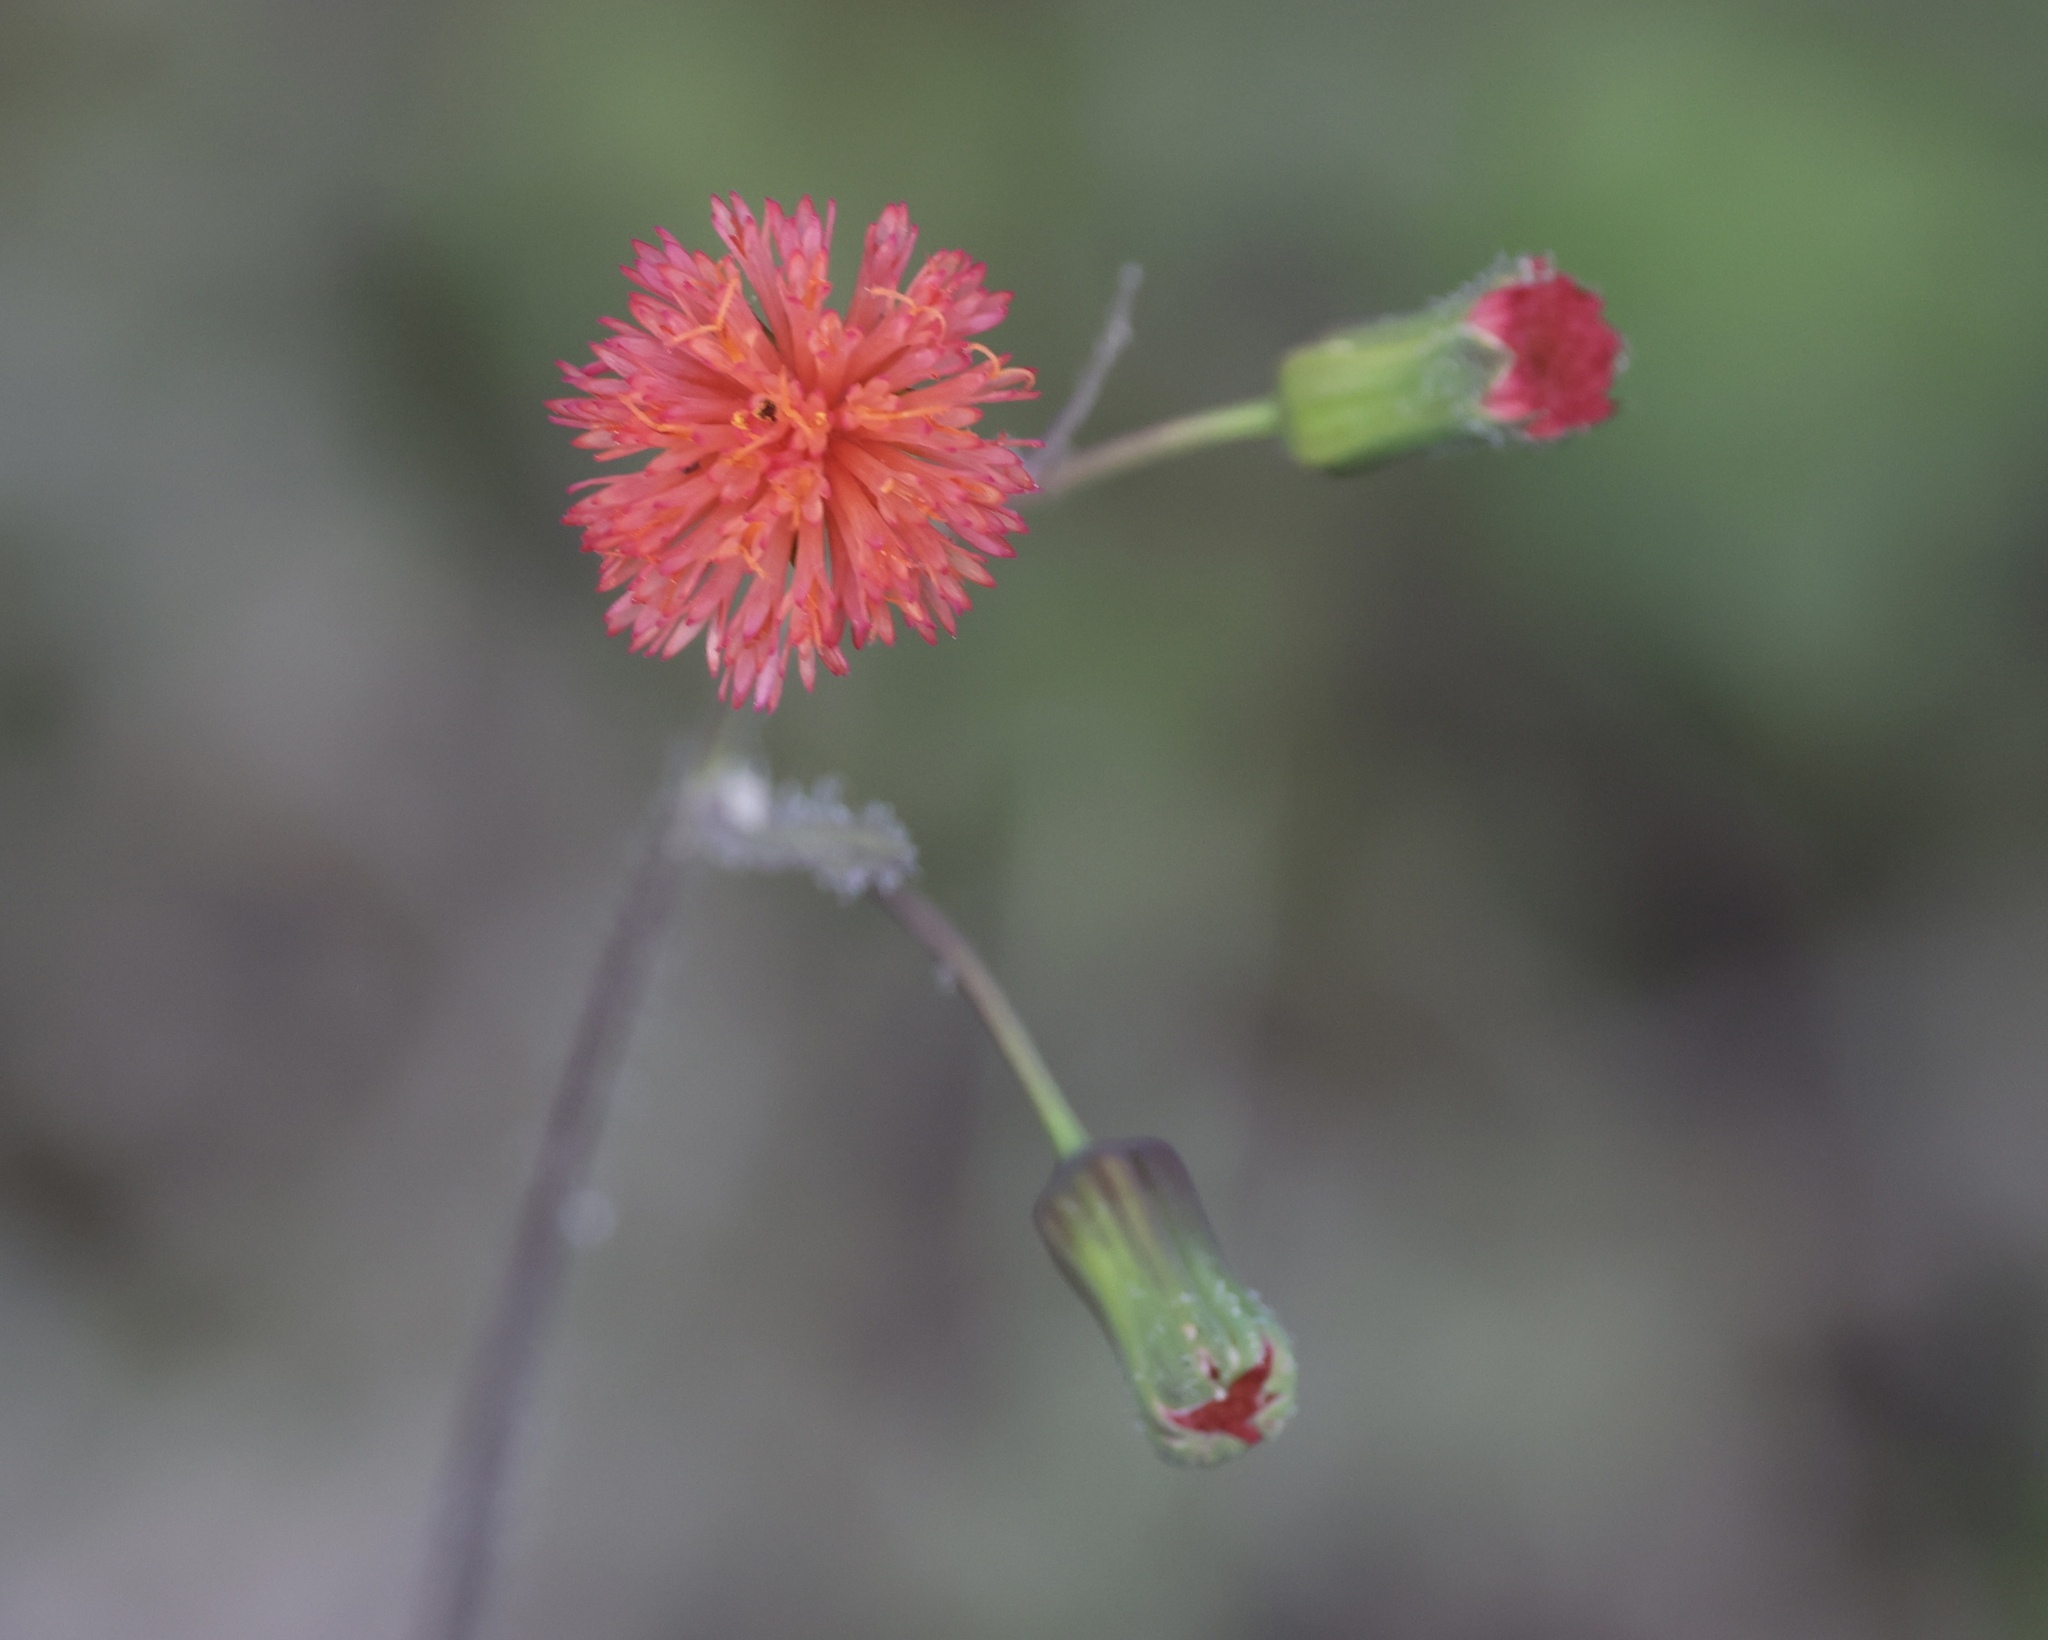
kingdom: Plantae
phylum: Tracheophyta
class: Magnoliopsida
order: Asterales
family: Asteraceae
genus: Emilia
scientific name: Emilia fosbergii
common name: Florida tasselflower
